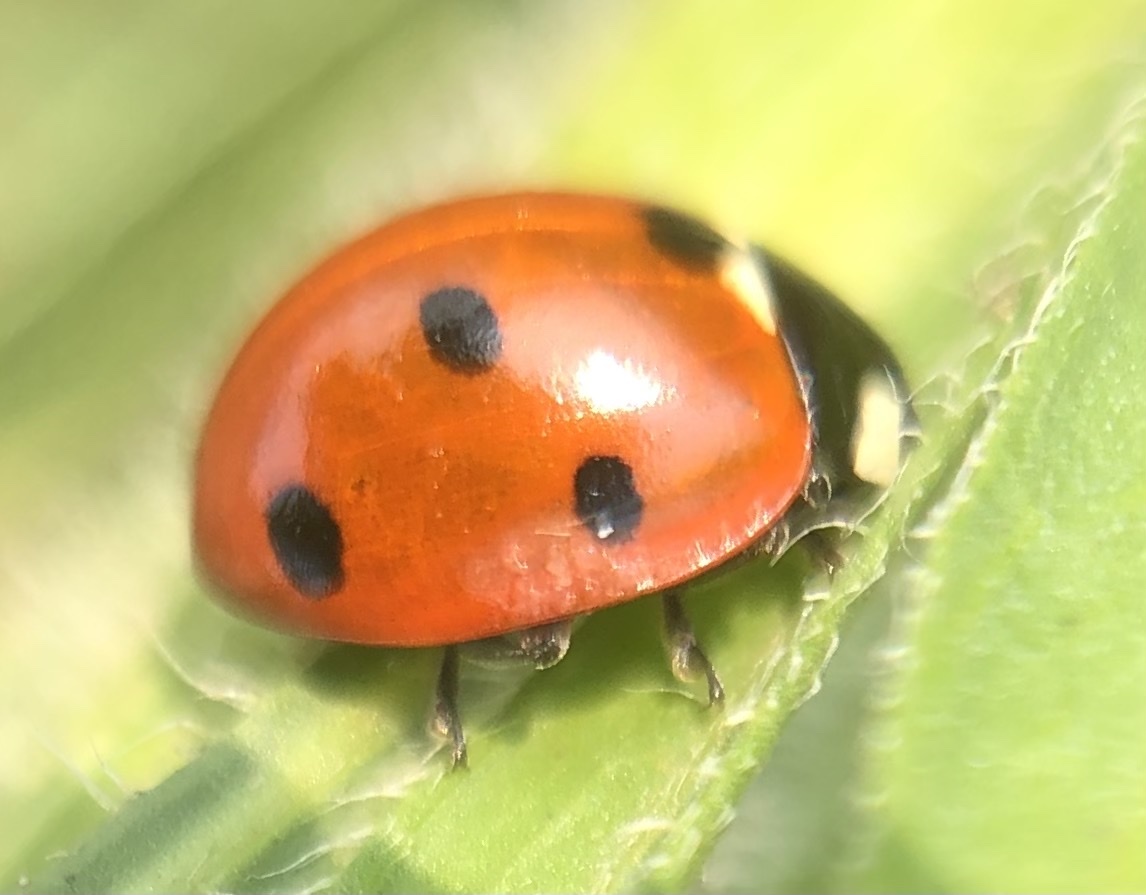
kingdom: Animalia
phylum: Arthropoda
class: Insecta
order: Coleoptera
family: Coccinellidae
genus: Coccinella
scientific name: Coccinella septempunctata
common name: Sevenspotted lady beetle
